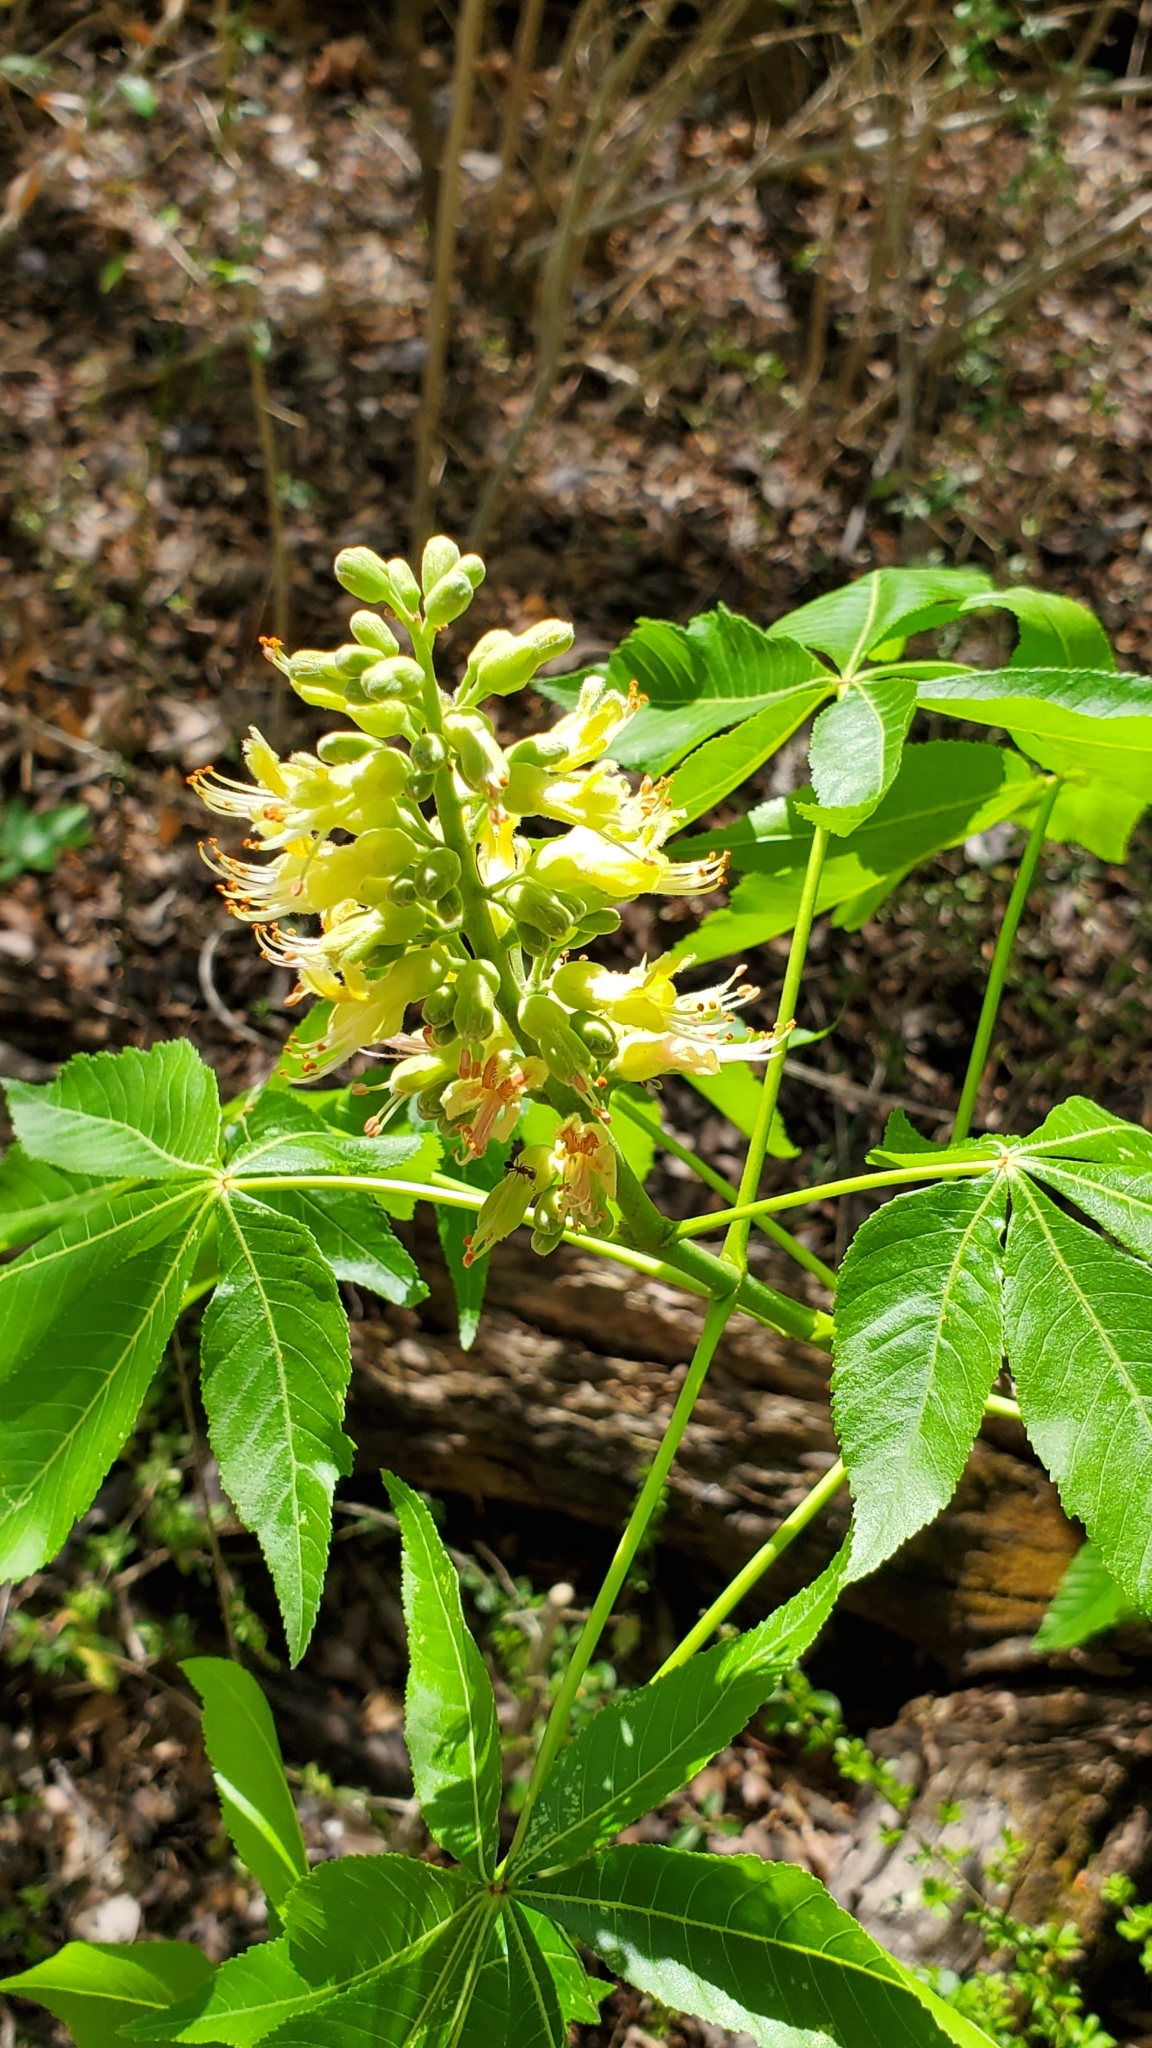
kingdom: Plantae
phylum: Tracheophyta
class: Magnoliopsida
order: Sapindales
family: Sapindaceae
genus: Aesculus
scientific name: Aesculus glabra
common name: Ohio buckeye
